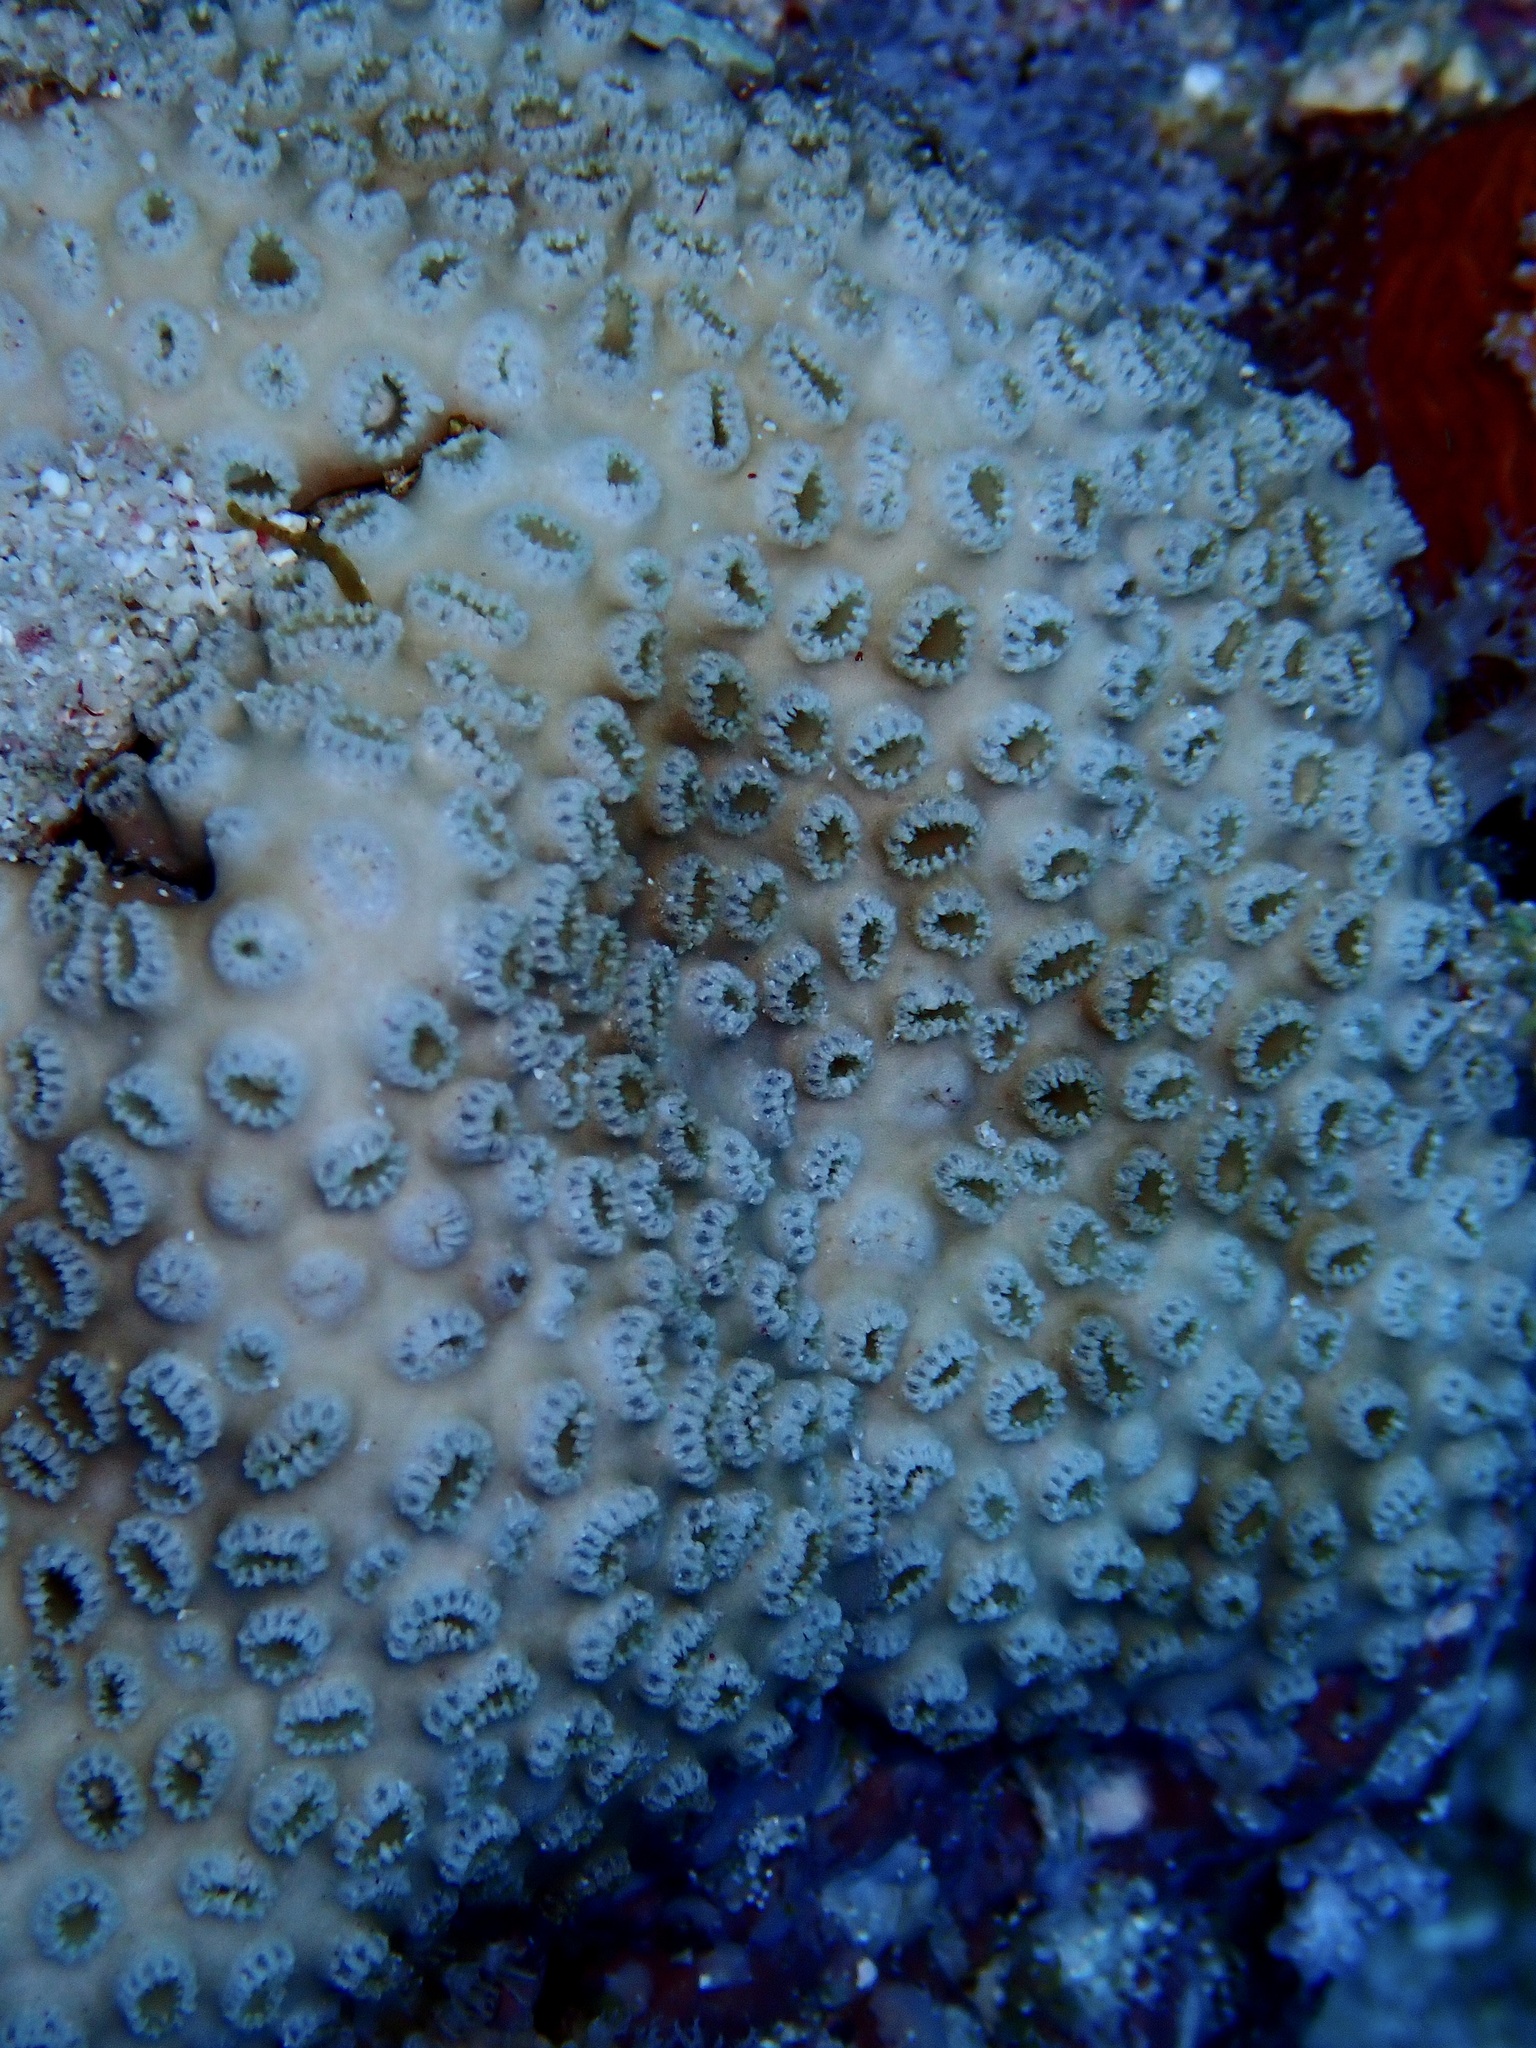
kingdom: Animalia
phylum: Cnidaria
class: Anthozoa
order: Zoantharia
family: Sphenopidae
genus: Palythoa
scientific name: Palythoa tuberculosa
